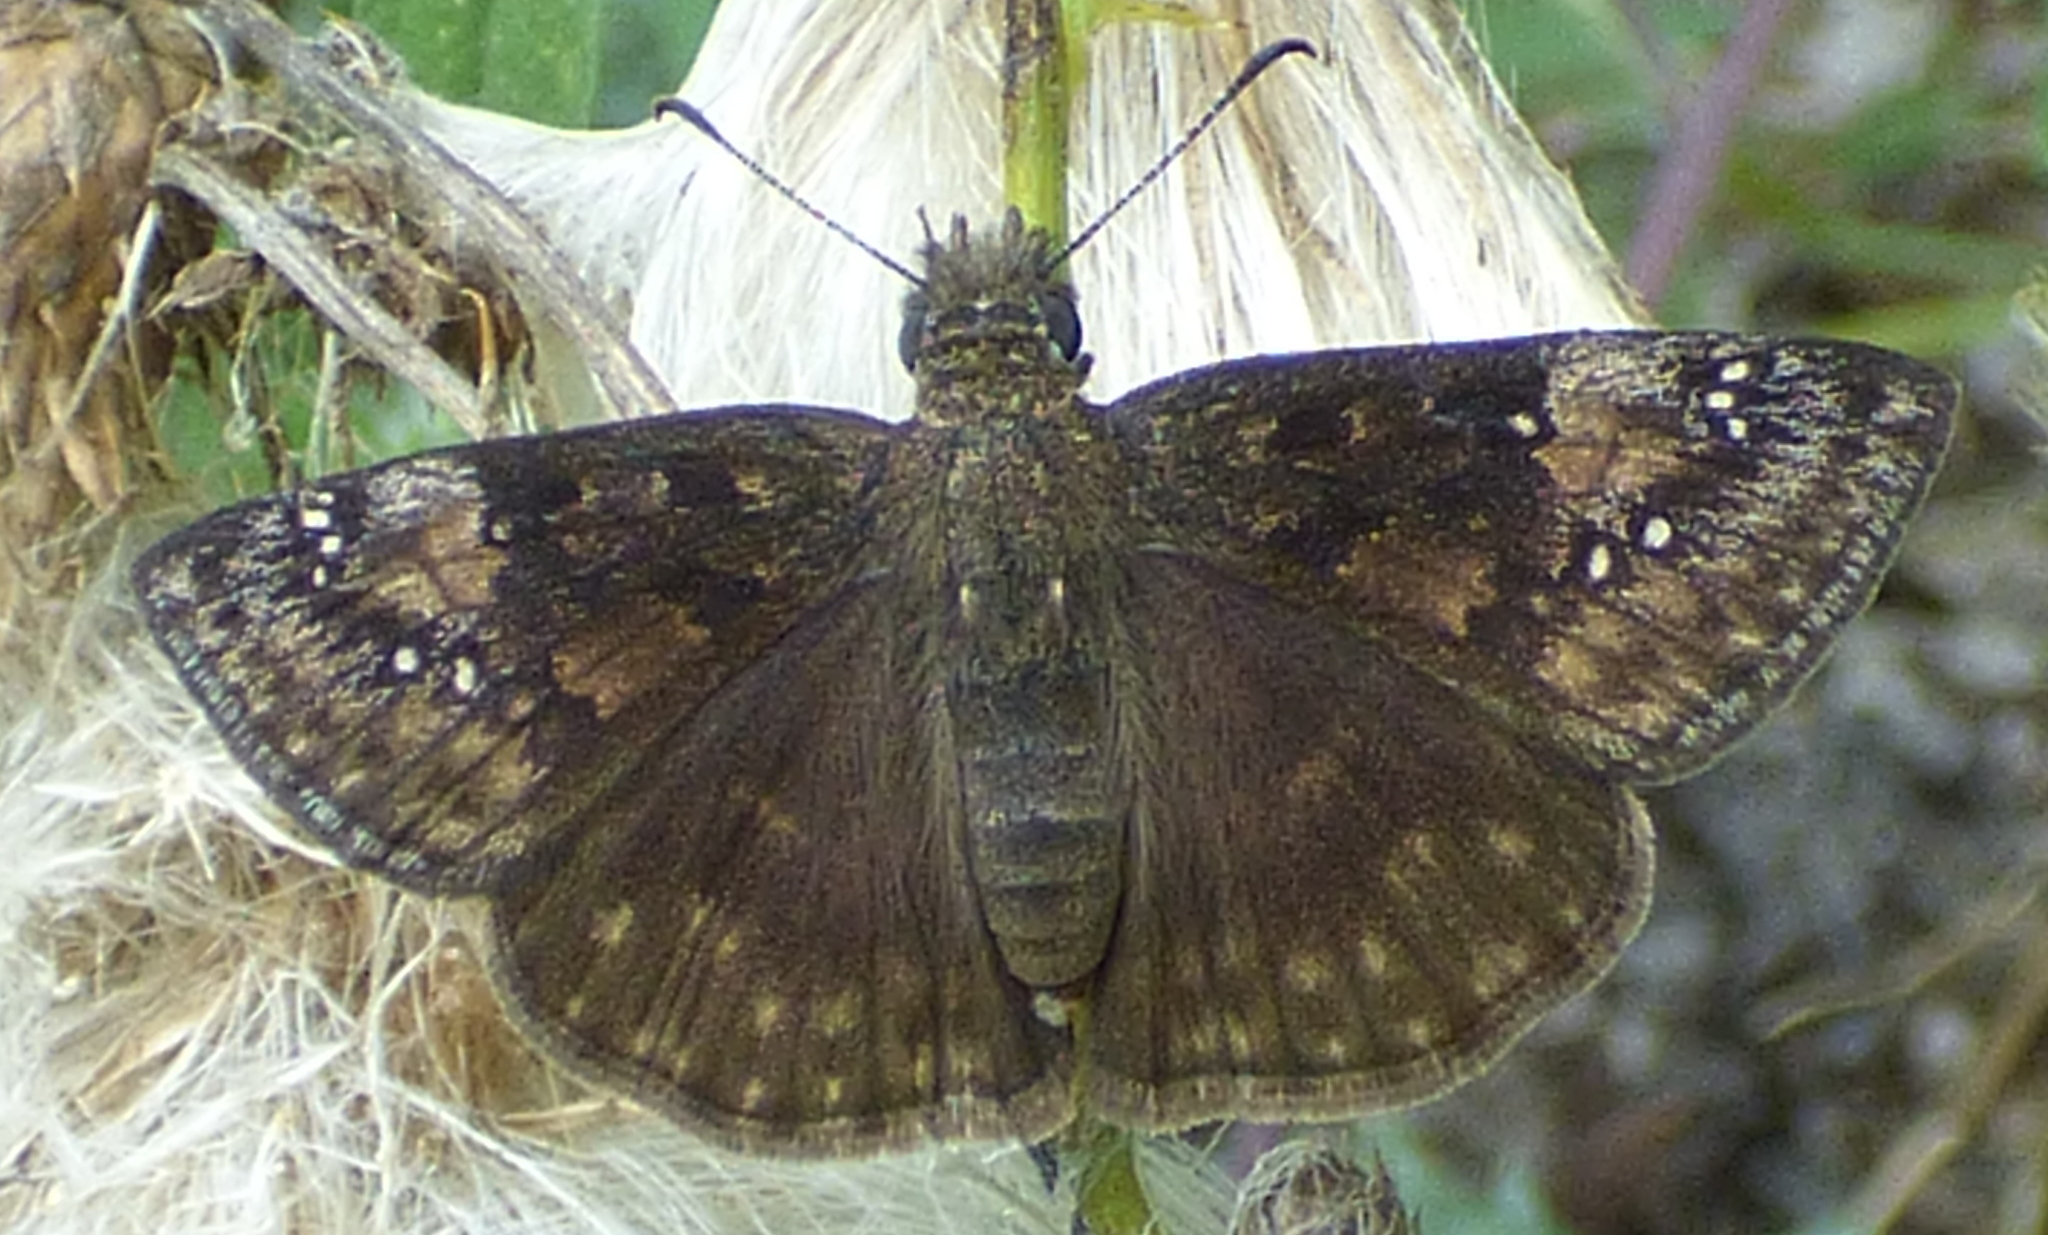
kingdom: Animalia
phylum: Arthropoda
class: Insecta
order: Lepidoptera
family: Hesperiidae
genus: Erynnis
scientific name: Erynnis baptisiae
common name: Wild indigo duskywing
